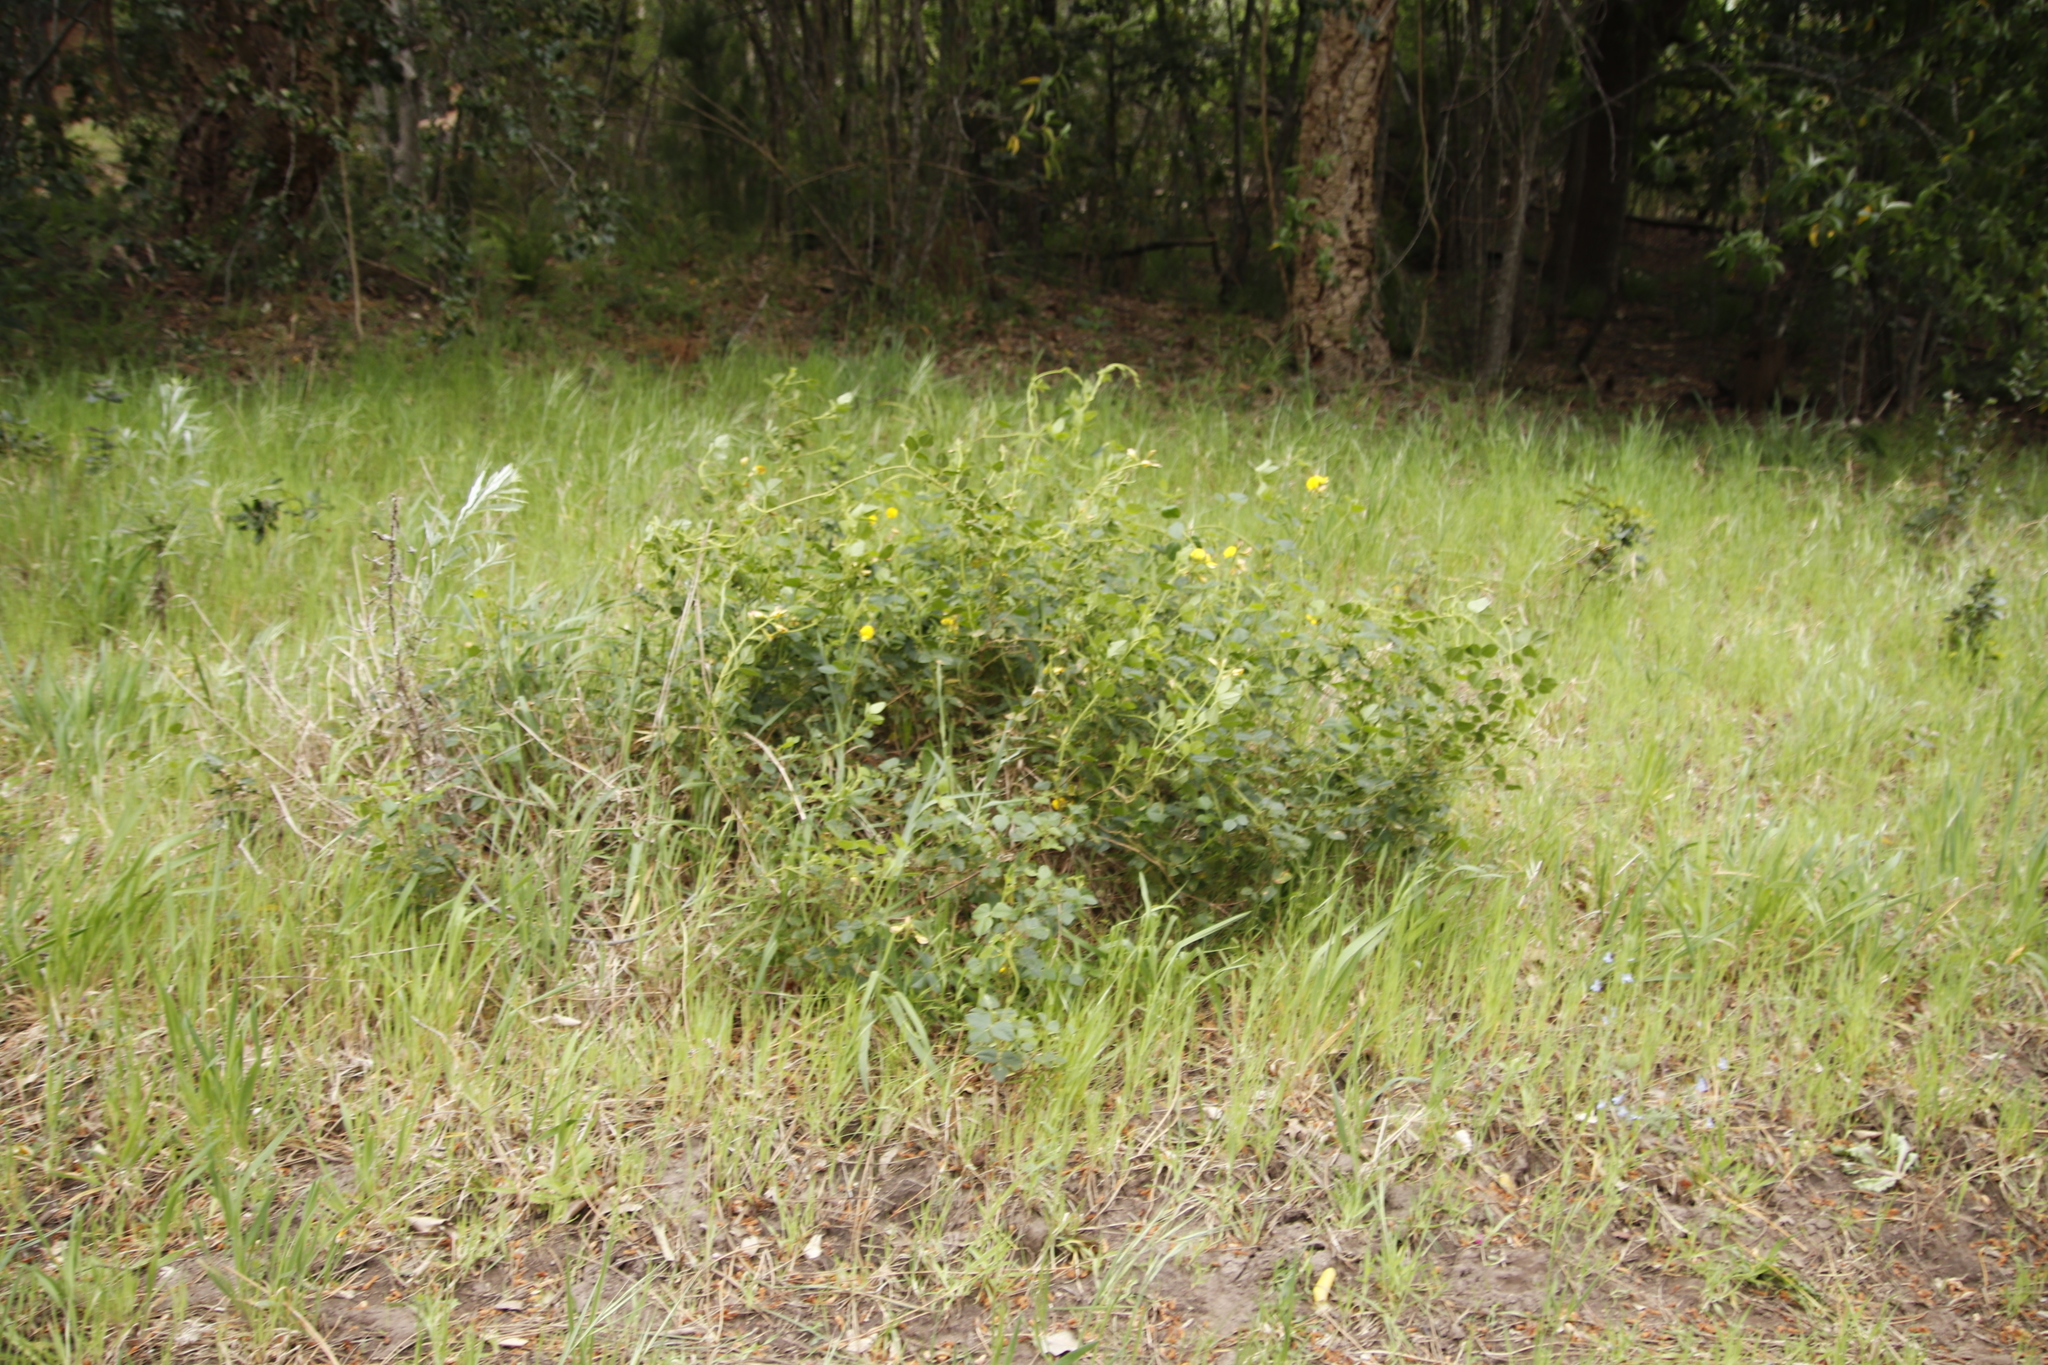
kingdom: Plantae
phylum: Tracheophyta
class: Magnoliopsida
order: Fabales
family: Fabaceae
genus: Bolusafra
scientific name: Bolusafra bituminosa
